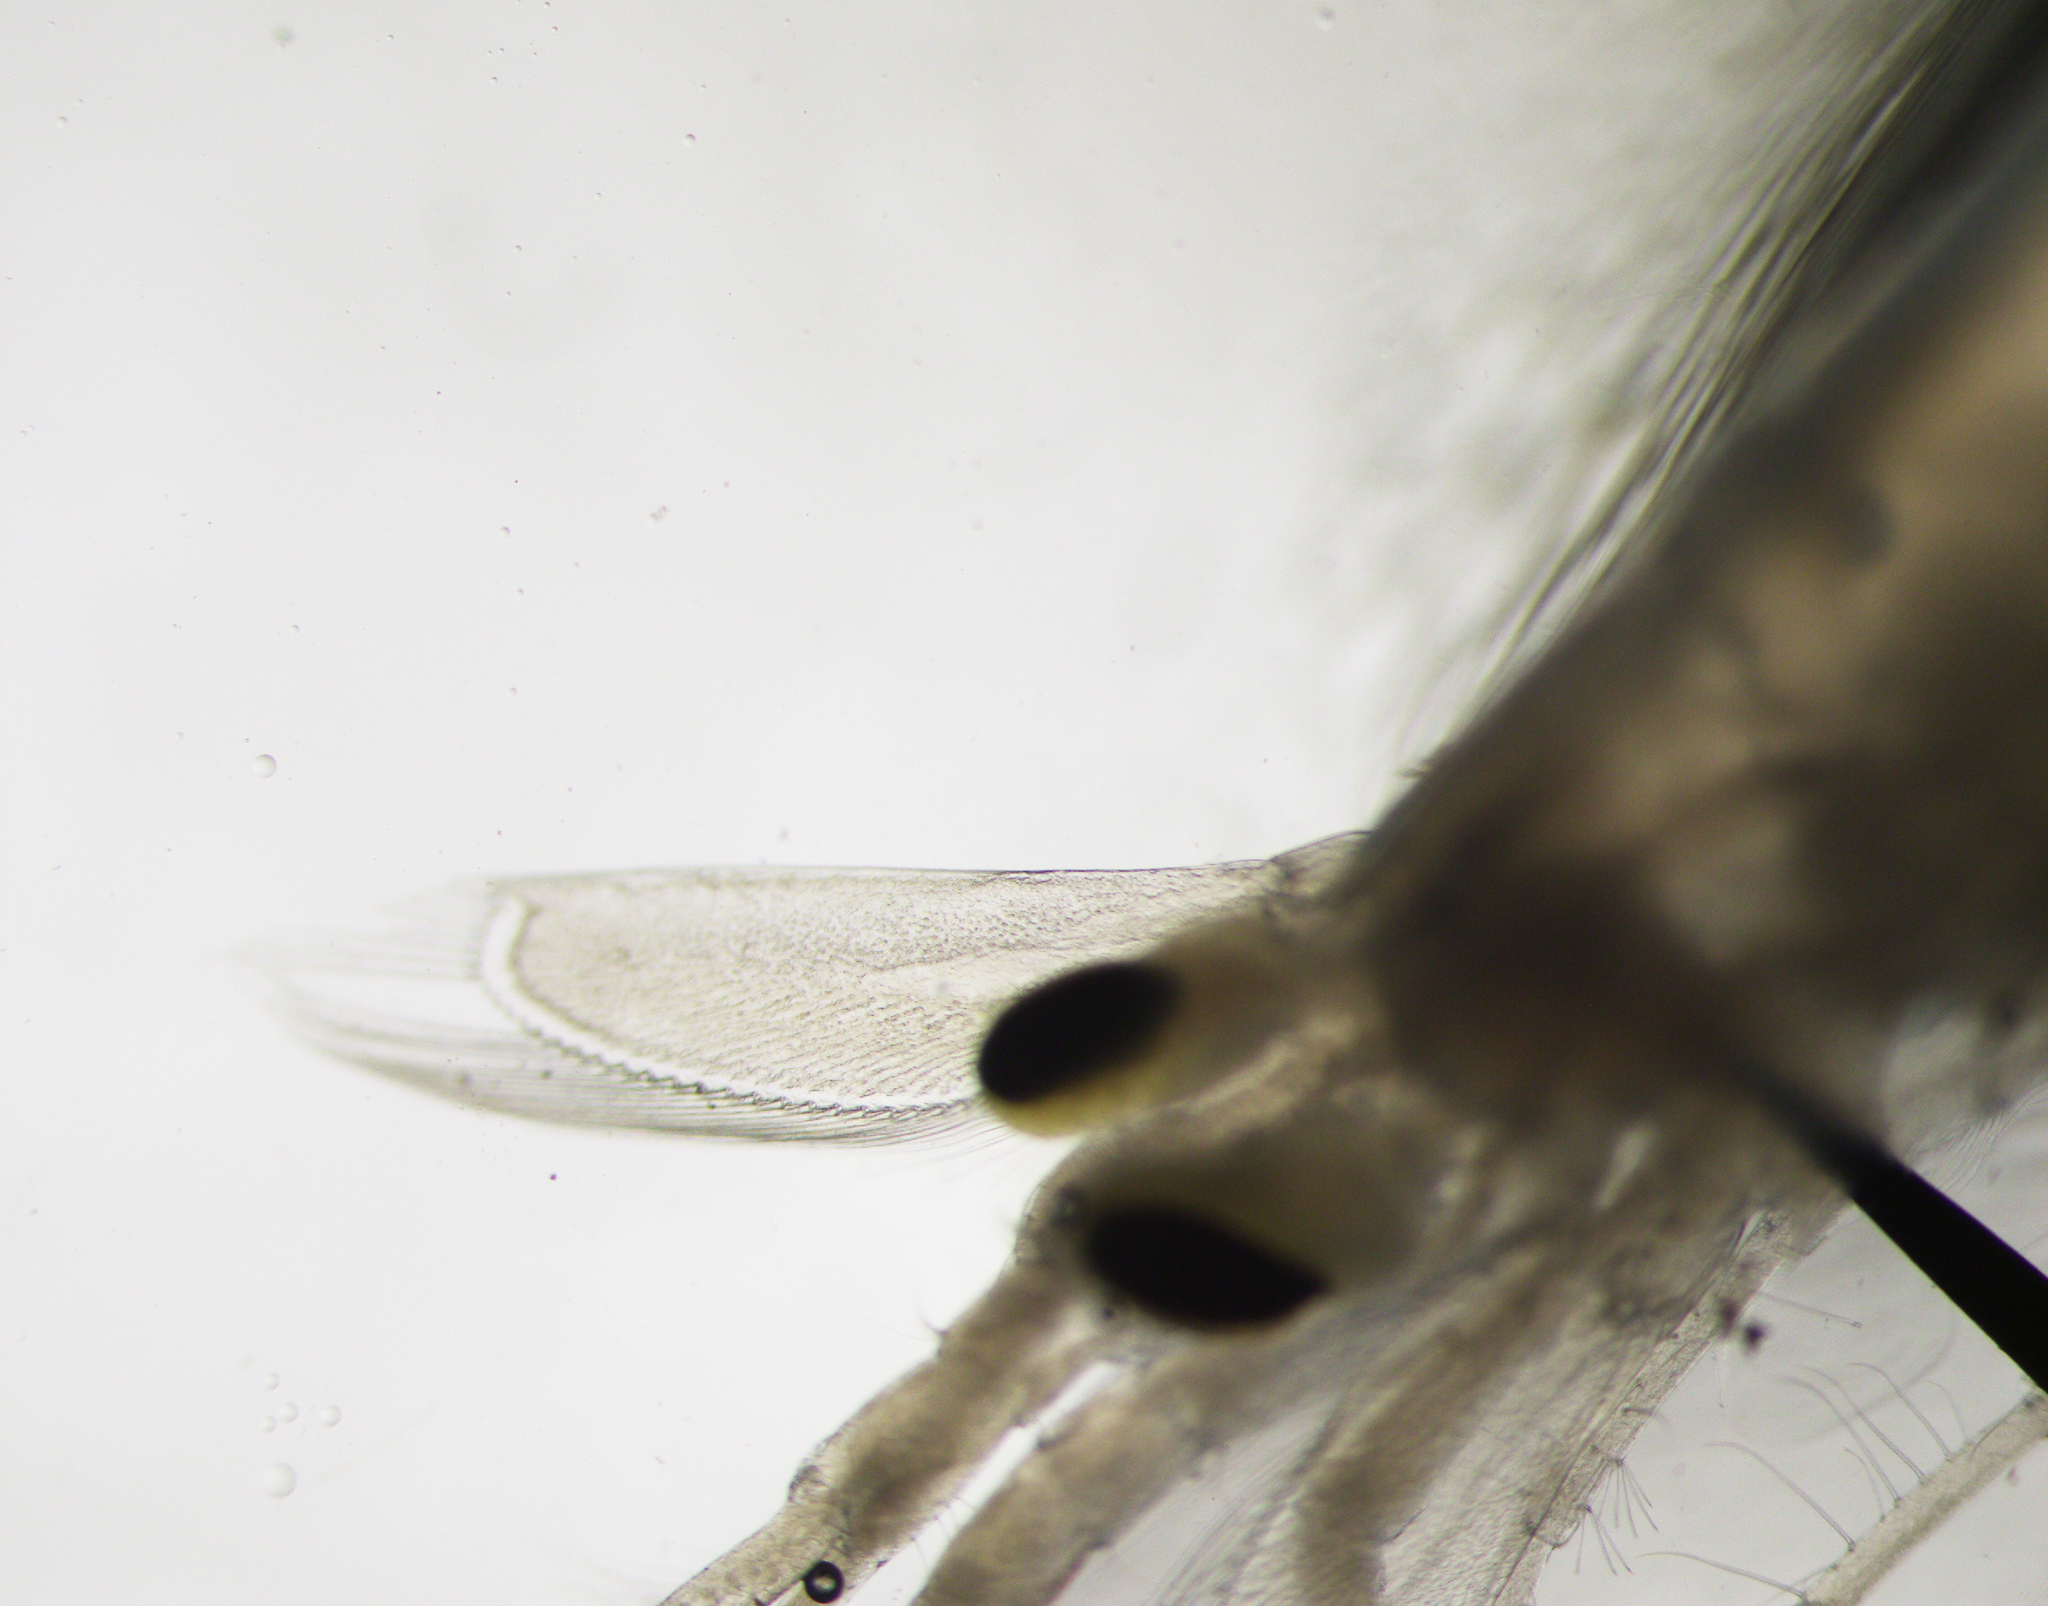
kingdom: Animalia
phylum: Arthropoda
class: Malacostraca
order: Decapoda
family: Pasiphaeidae
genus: Pasiphaea
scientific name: Pasiphaea multidentata
